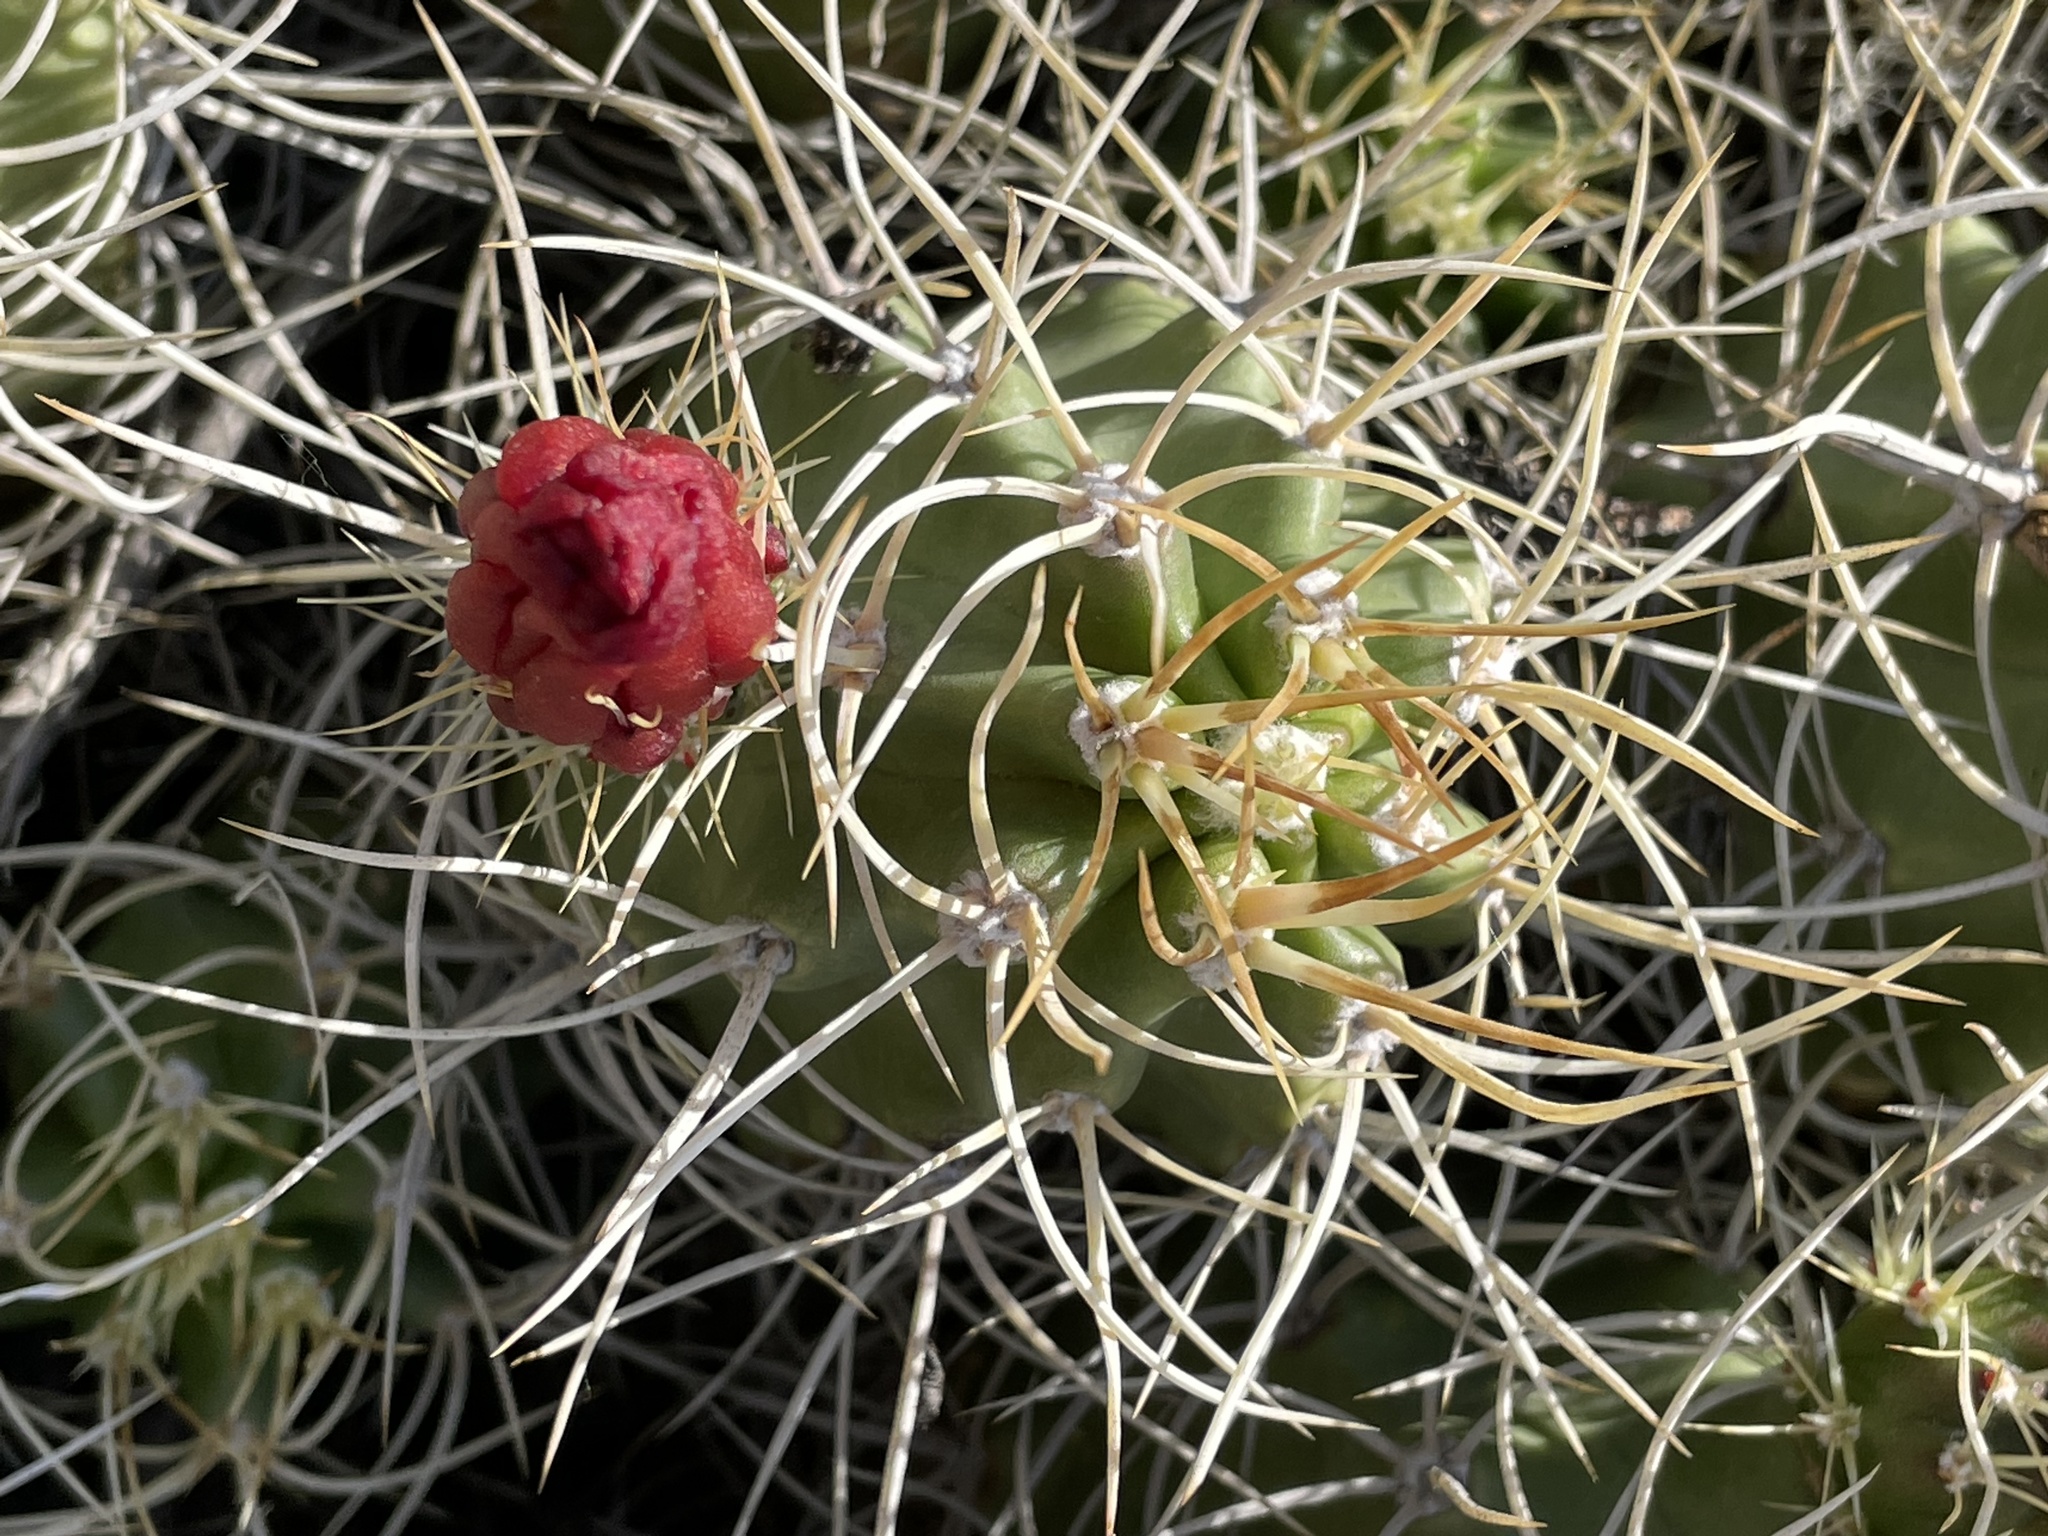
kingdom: Plantae
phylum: Tracheophyta
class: Magnoliopsida
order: Caryophyllales
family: Cactaceae
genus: Echinocereus
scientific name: Echinocereus triglochidiatus
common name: Claretcup hedgehog
